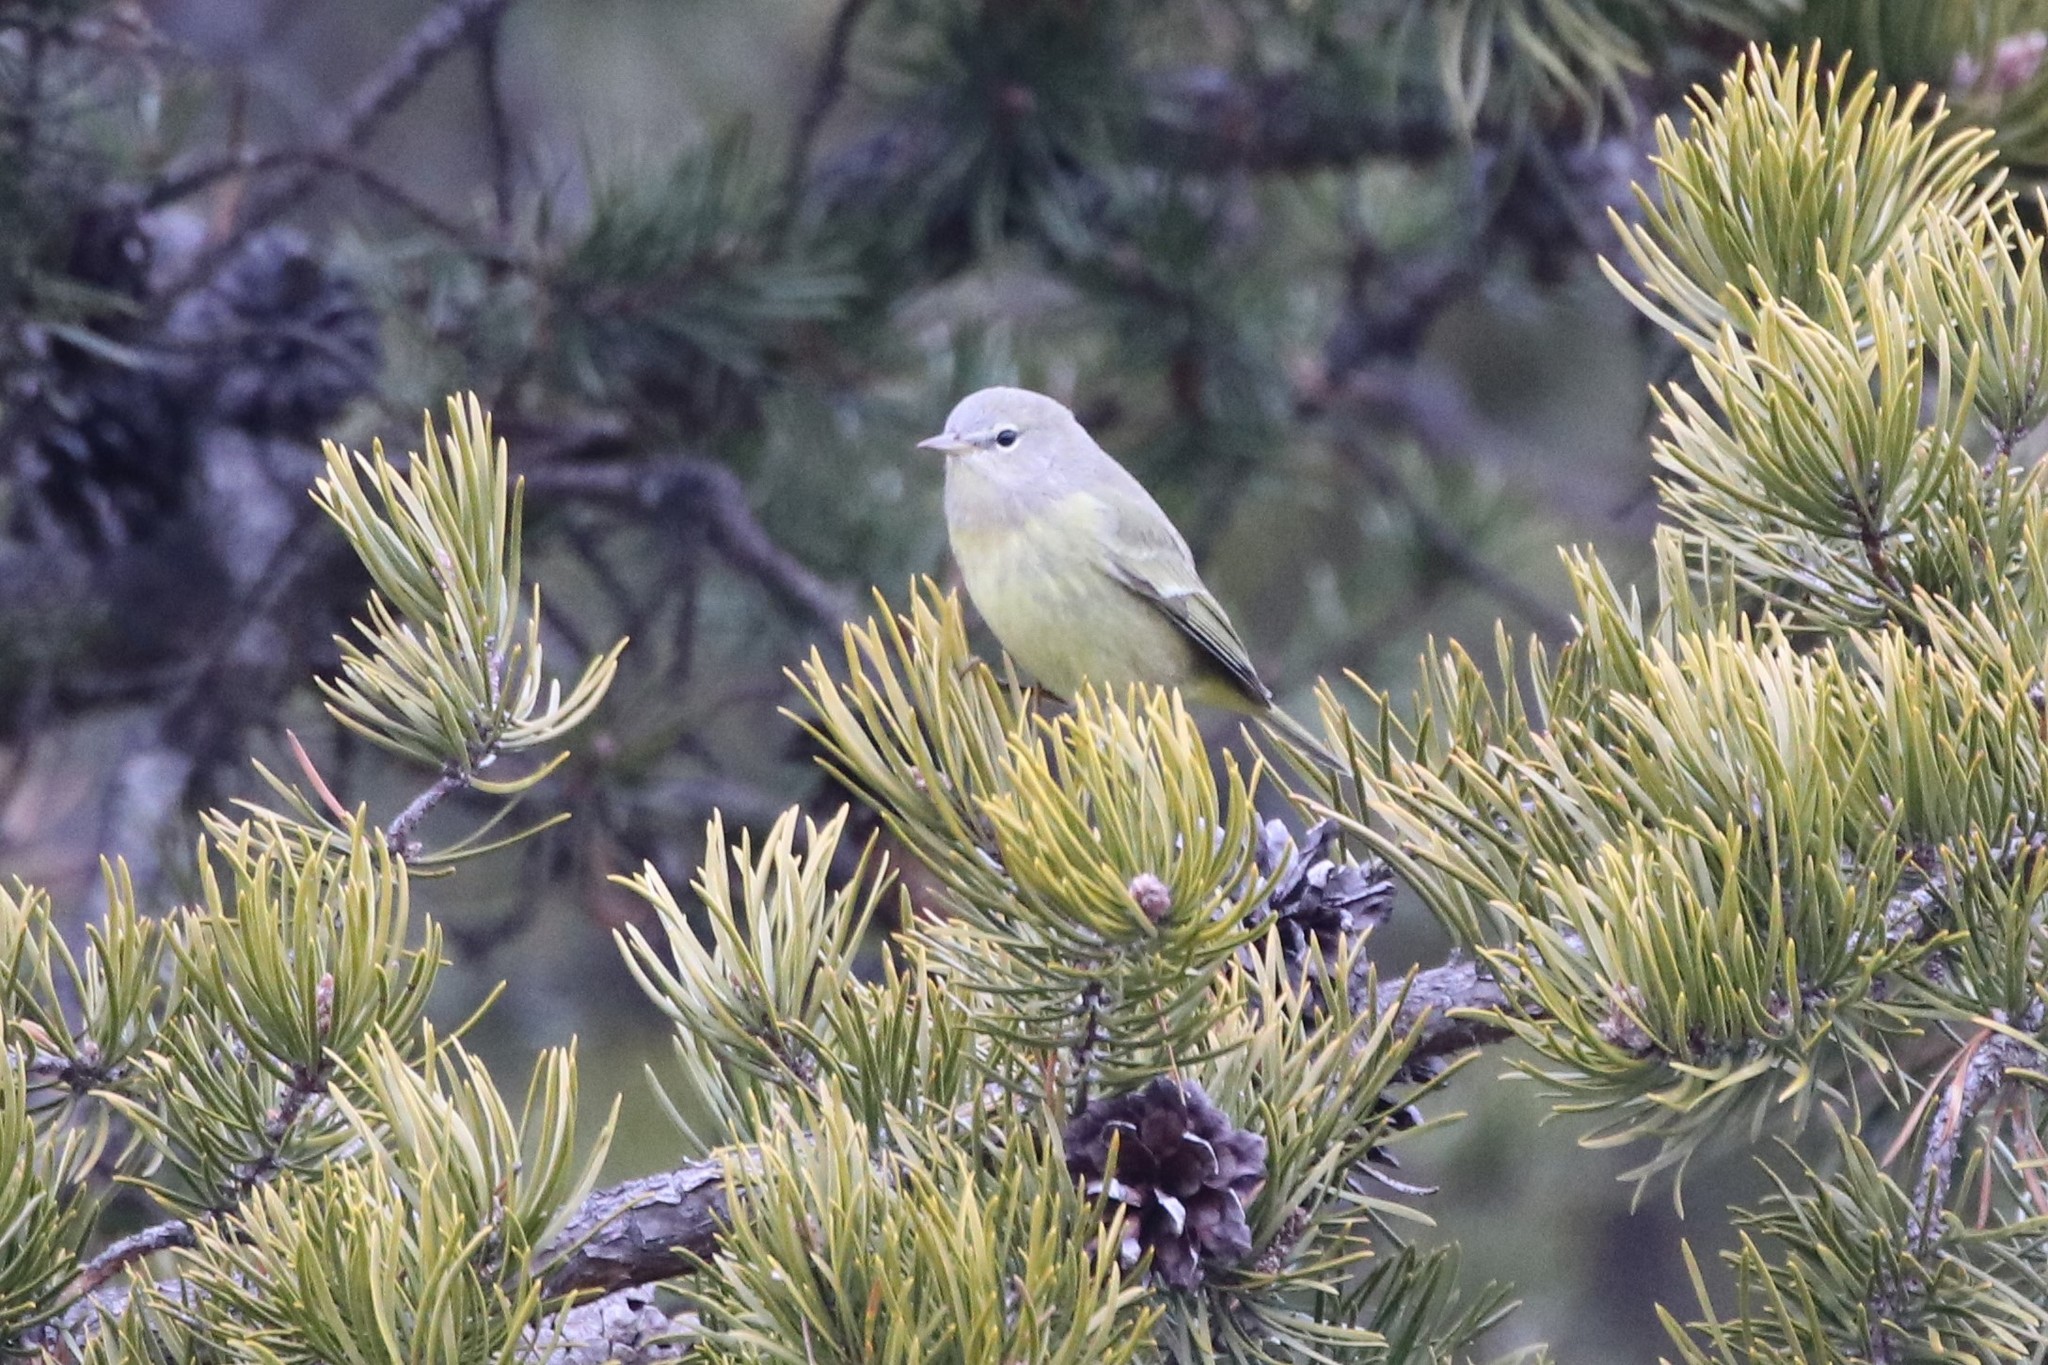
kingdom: Animalia
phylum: Chordata
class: Aves
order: Passeriformes
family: Parulidae
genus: Leiothlypis
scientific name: Leiothlypis celata
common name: Orange-crowned warbler
